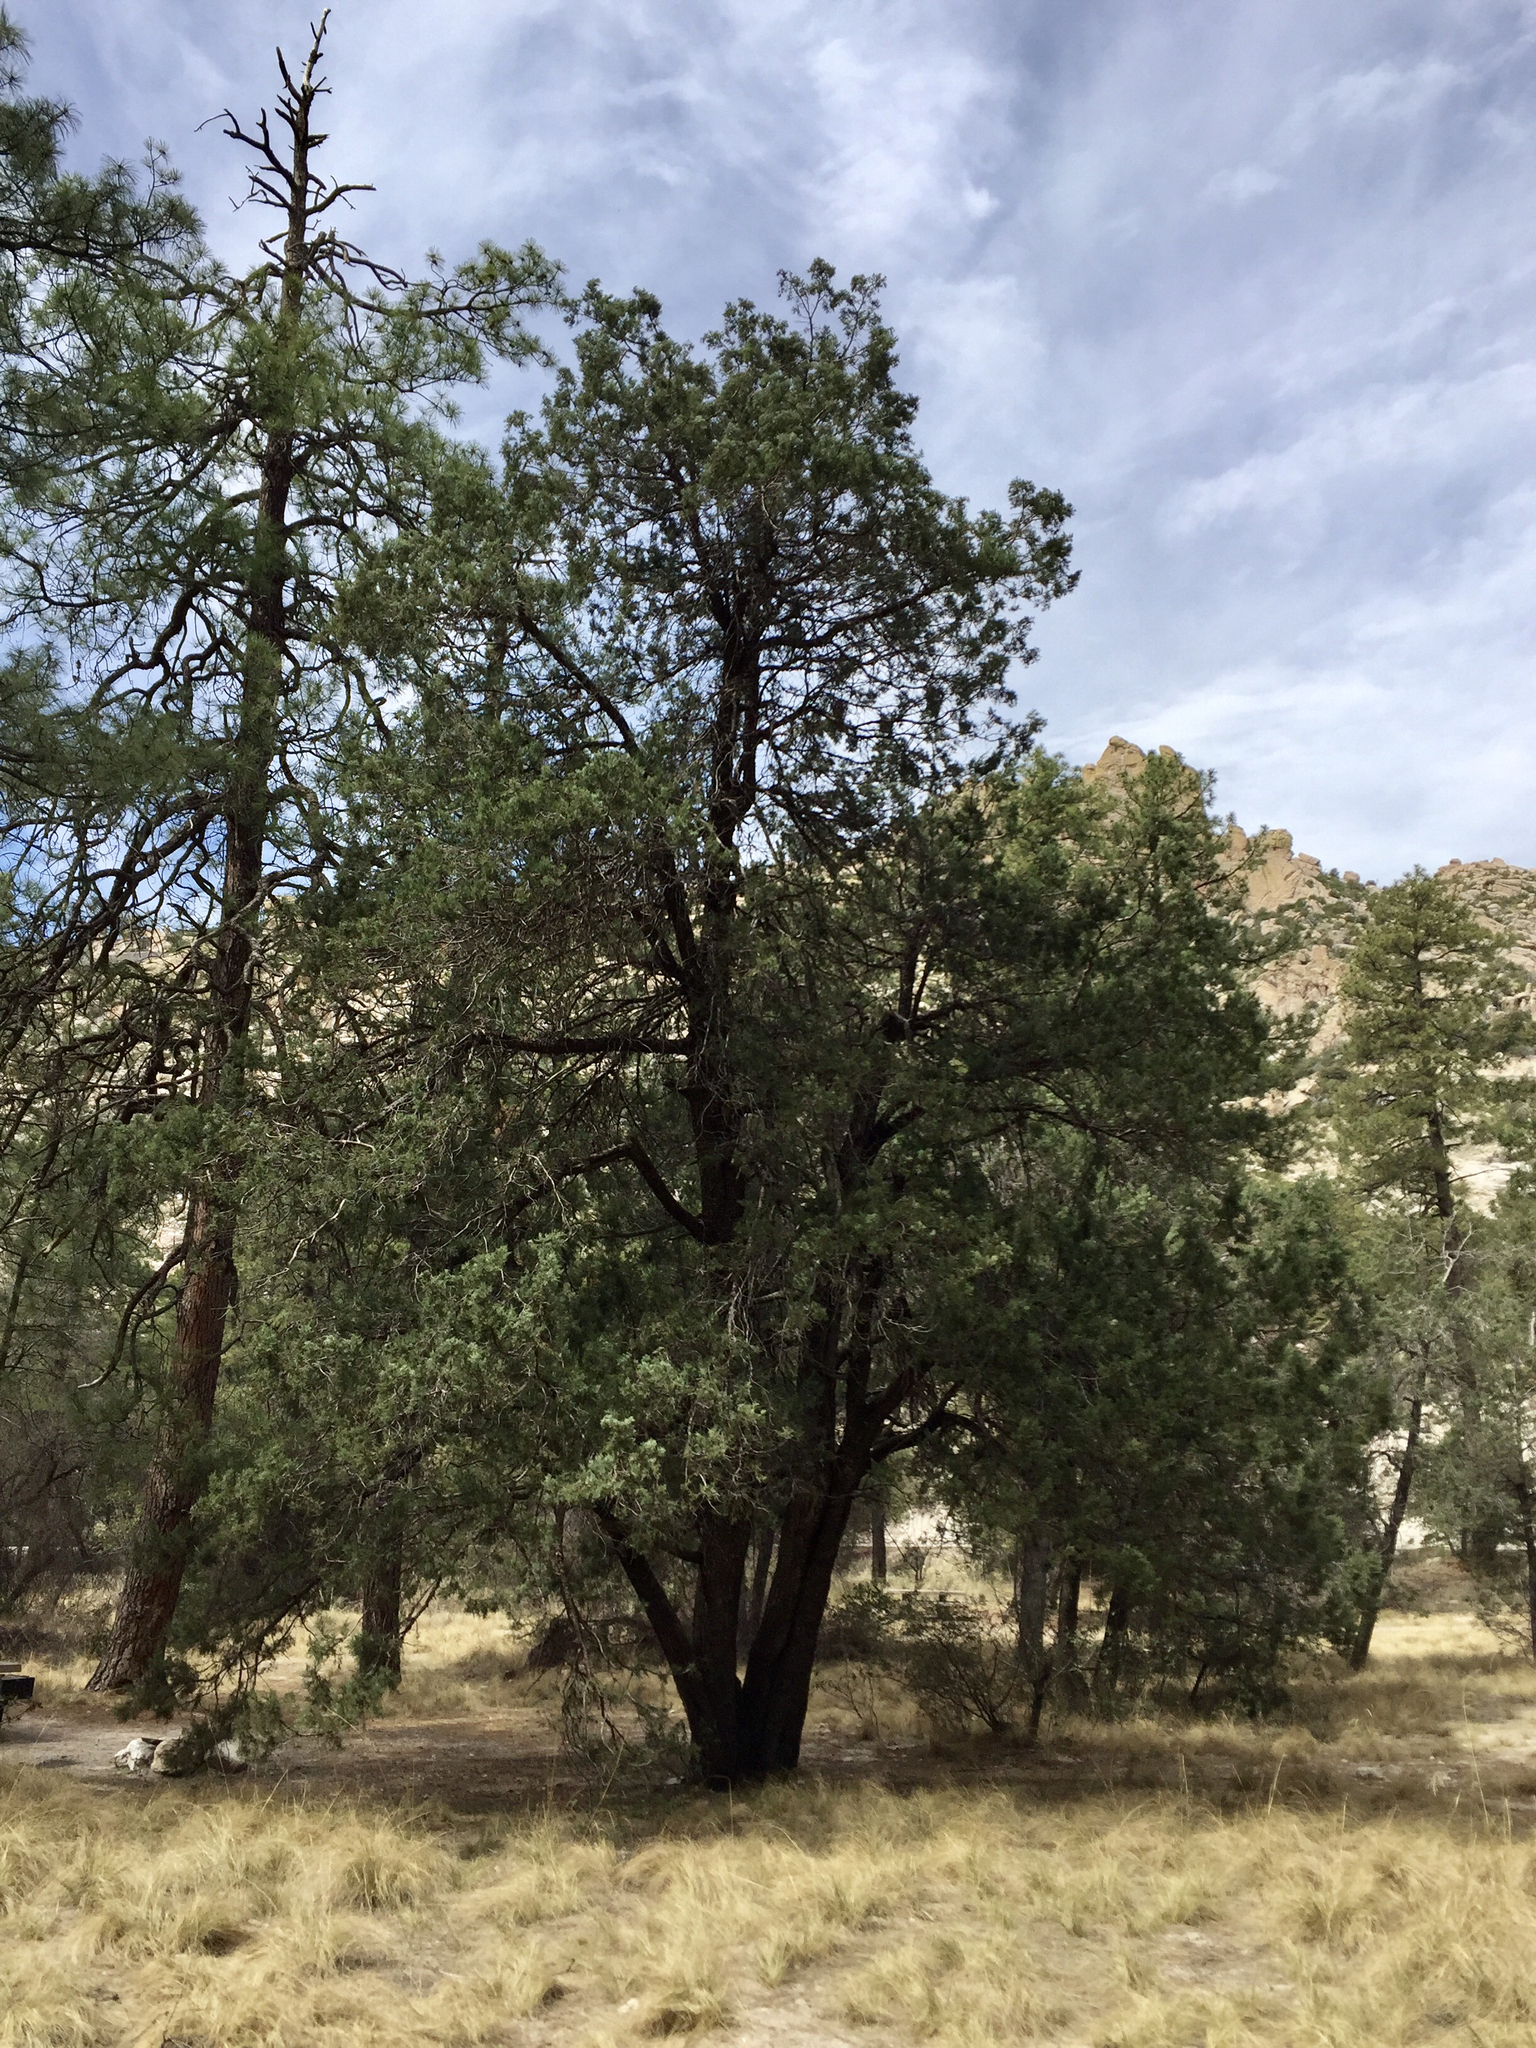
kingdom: Plantae
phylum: Tracheophyta
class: Pinopsida
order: Pinales
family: Cupressaceae
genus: Juniperus
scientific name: Juniperus deppeana
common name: Alligator juniper
